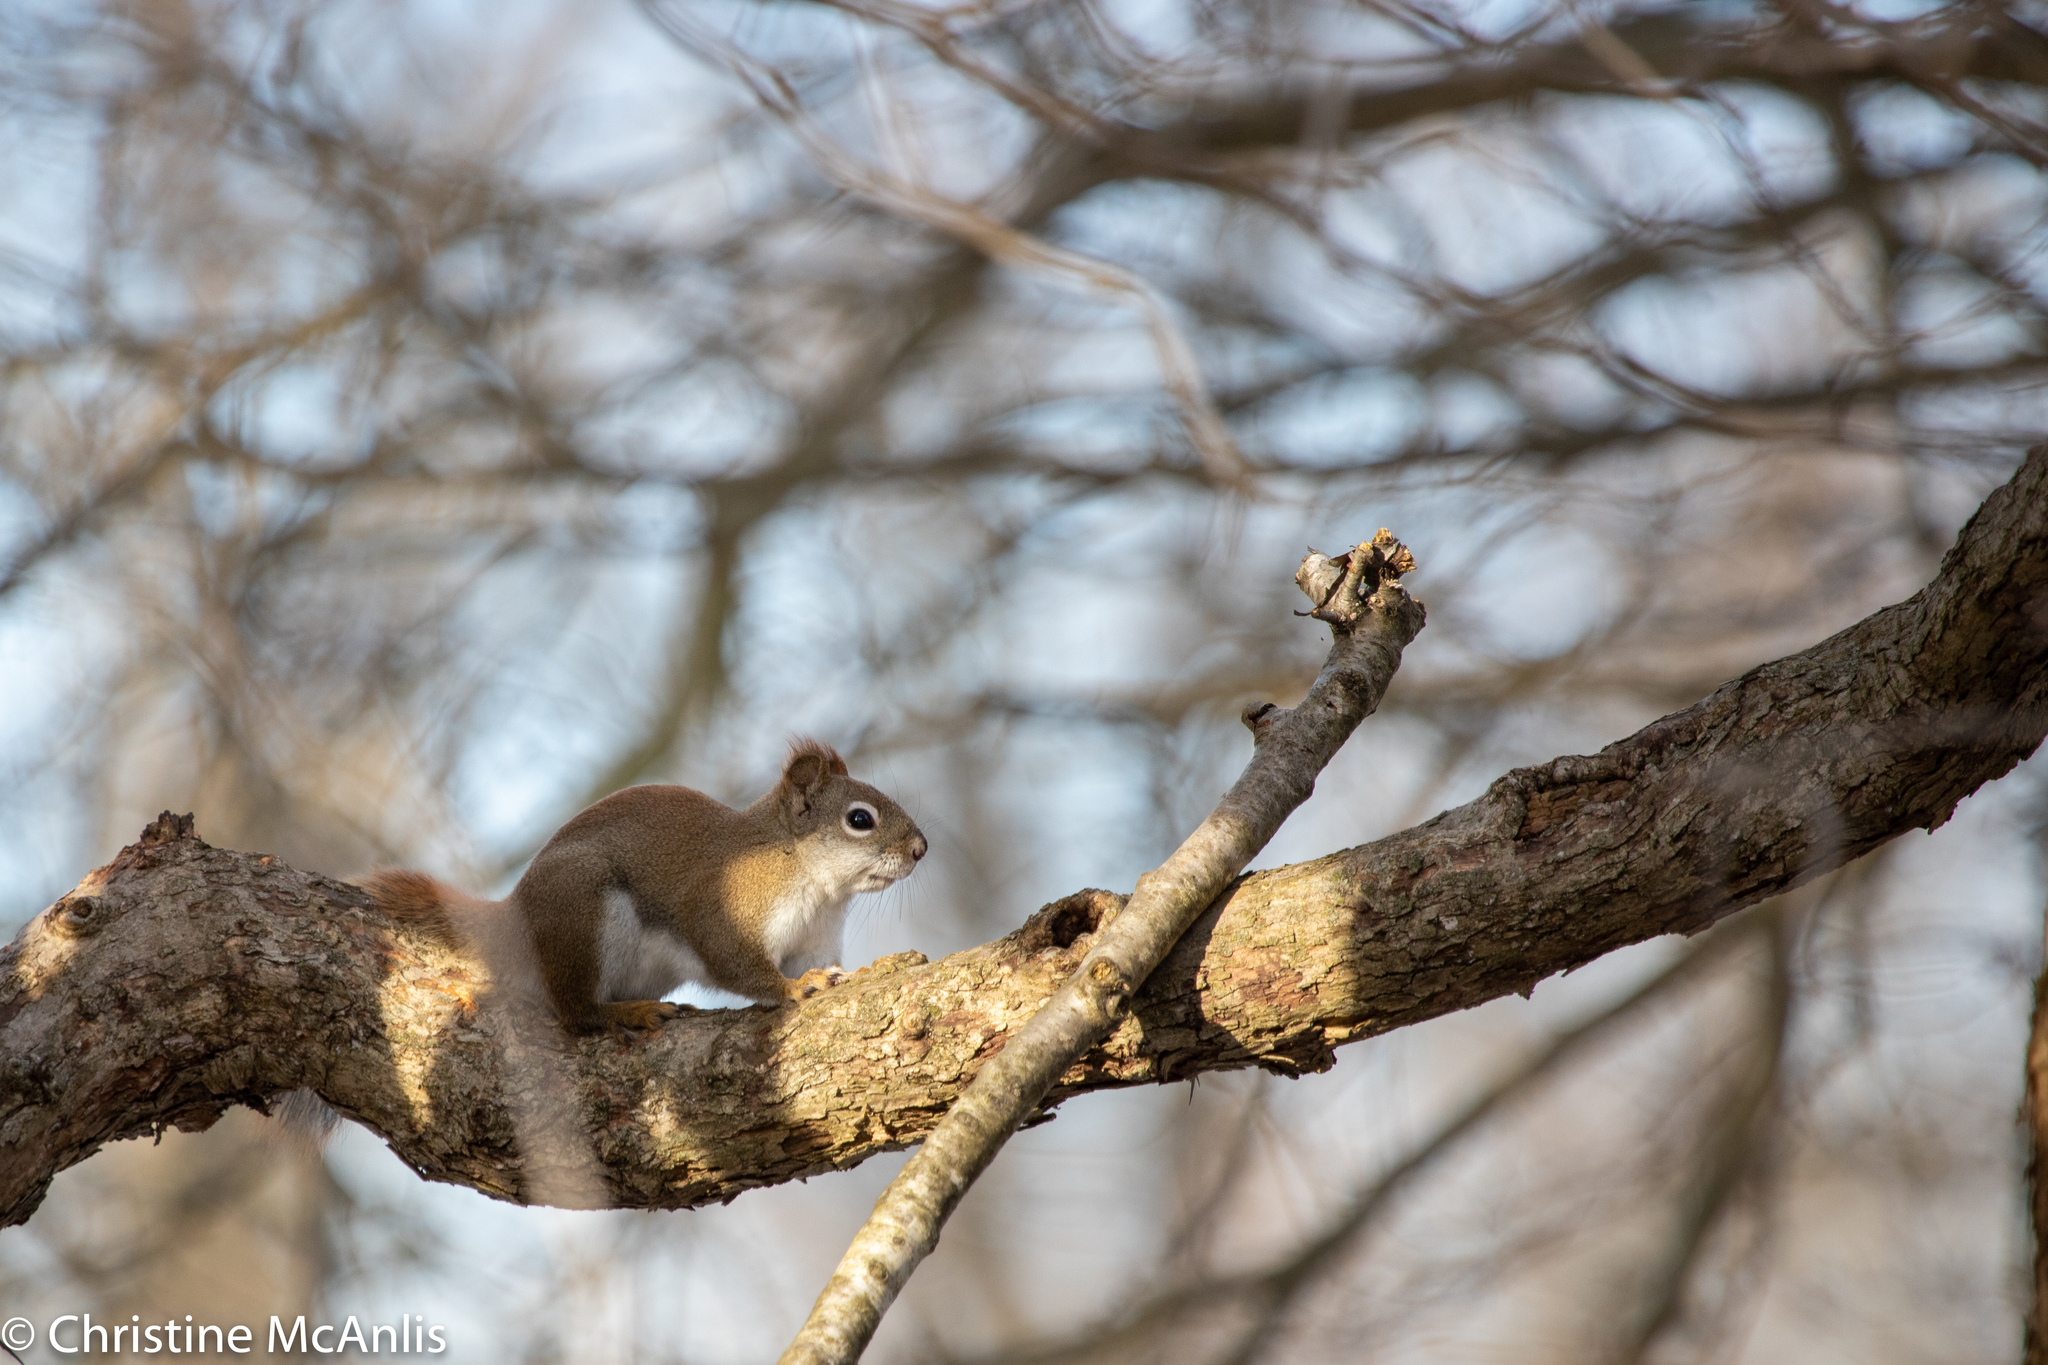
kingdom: Animalia
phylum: Chordata
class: Mammalia
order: Rodentia
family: Sciuridae
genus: Tamiasciurus
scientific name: Tamiasciurus hudsonicus
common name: Red squirrel
